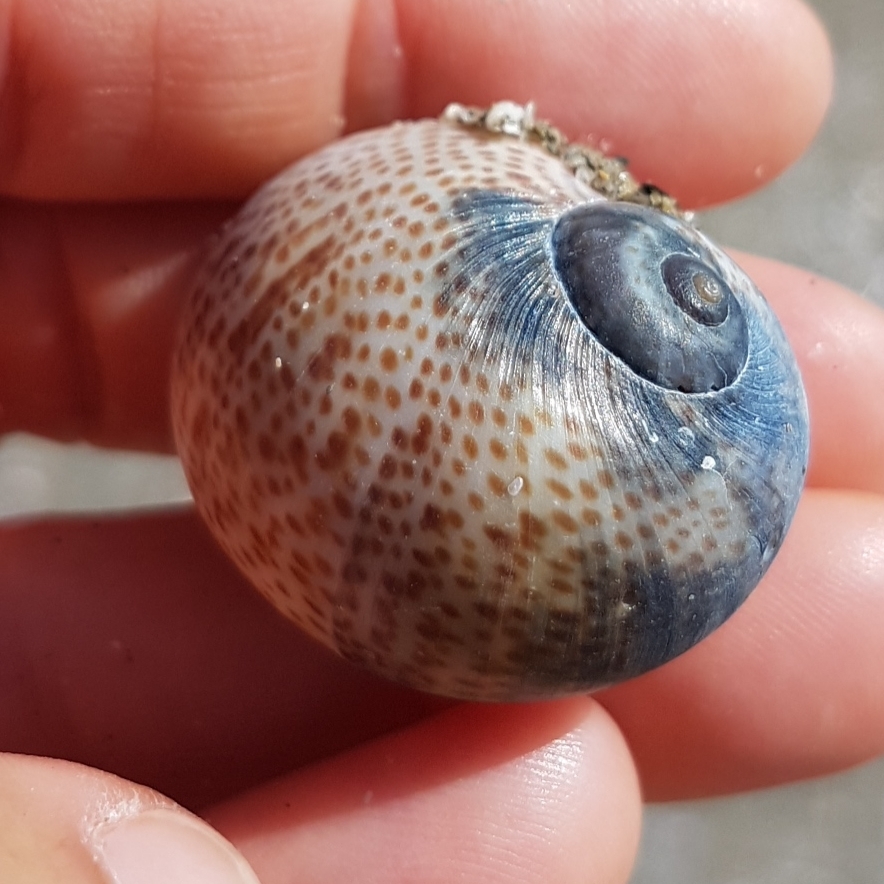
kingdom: Animalia
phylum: Mollusca
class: Gastropoda
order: Littorinimorpha
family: Naticidae
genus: Naticarius
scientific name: Naticarius stercusmuscarum
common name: Fly-speck moonsnail
